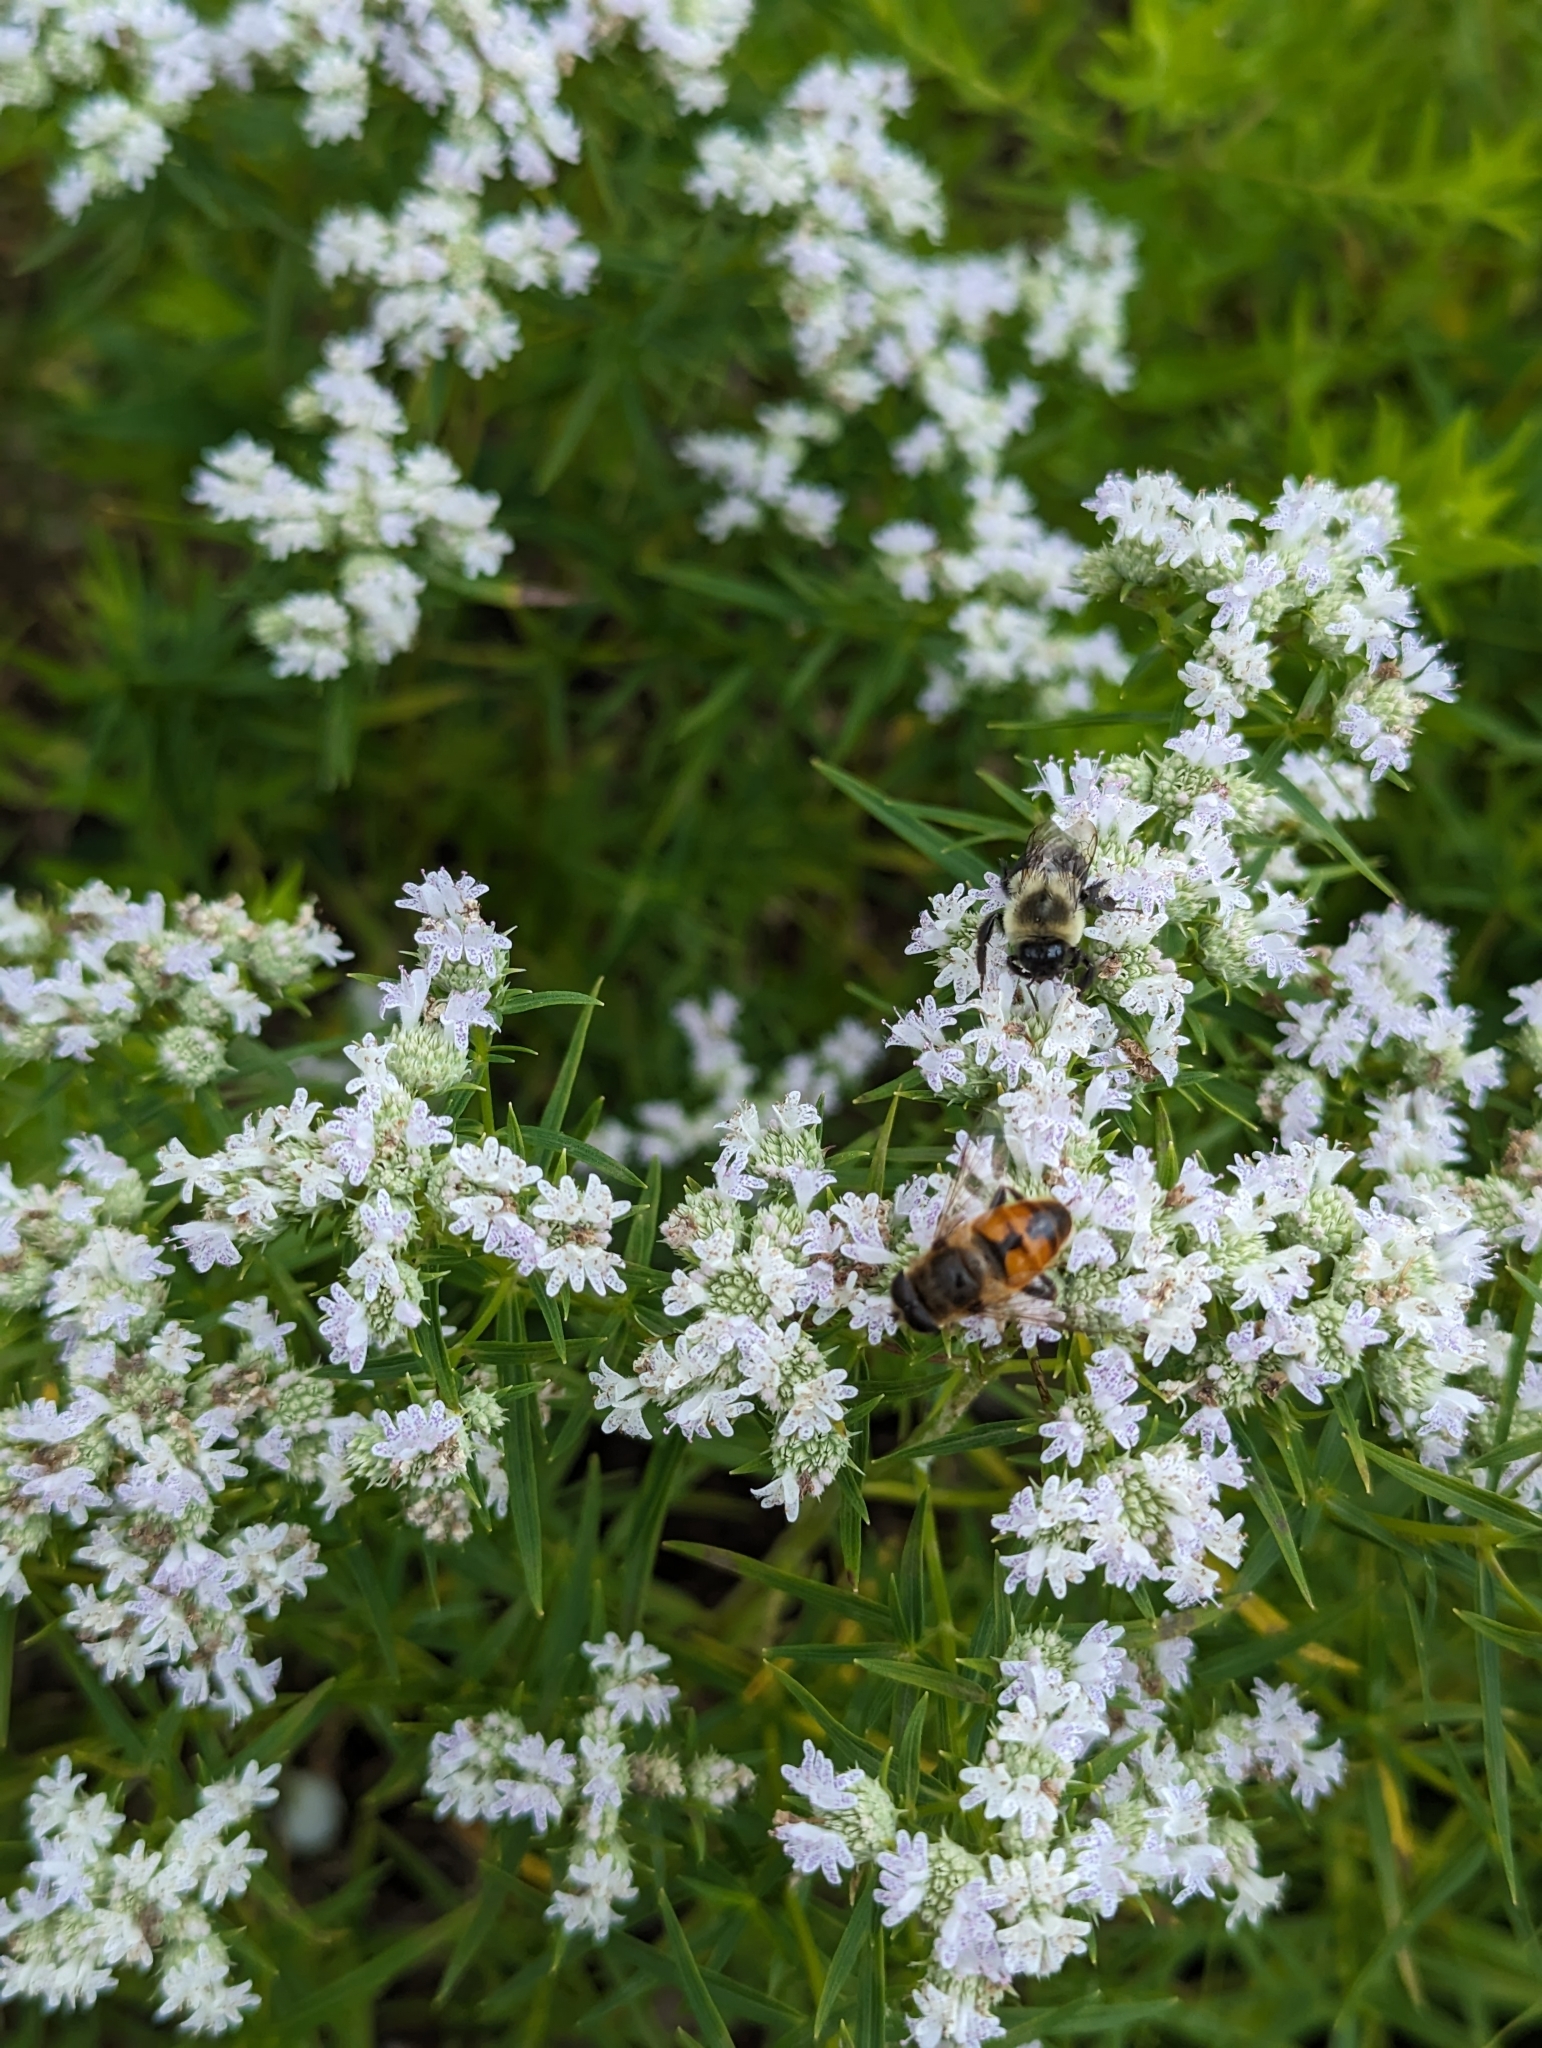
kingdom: Animalia
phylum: Arthropoda
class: Insecta
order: Diptera
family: Syrphidae
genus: Eristalis
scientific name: Eristalis tenax
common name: Drone fly
